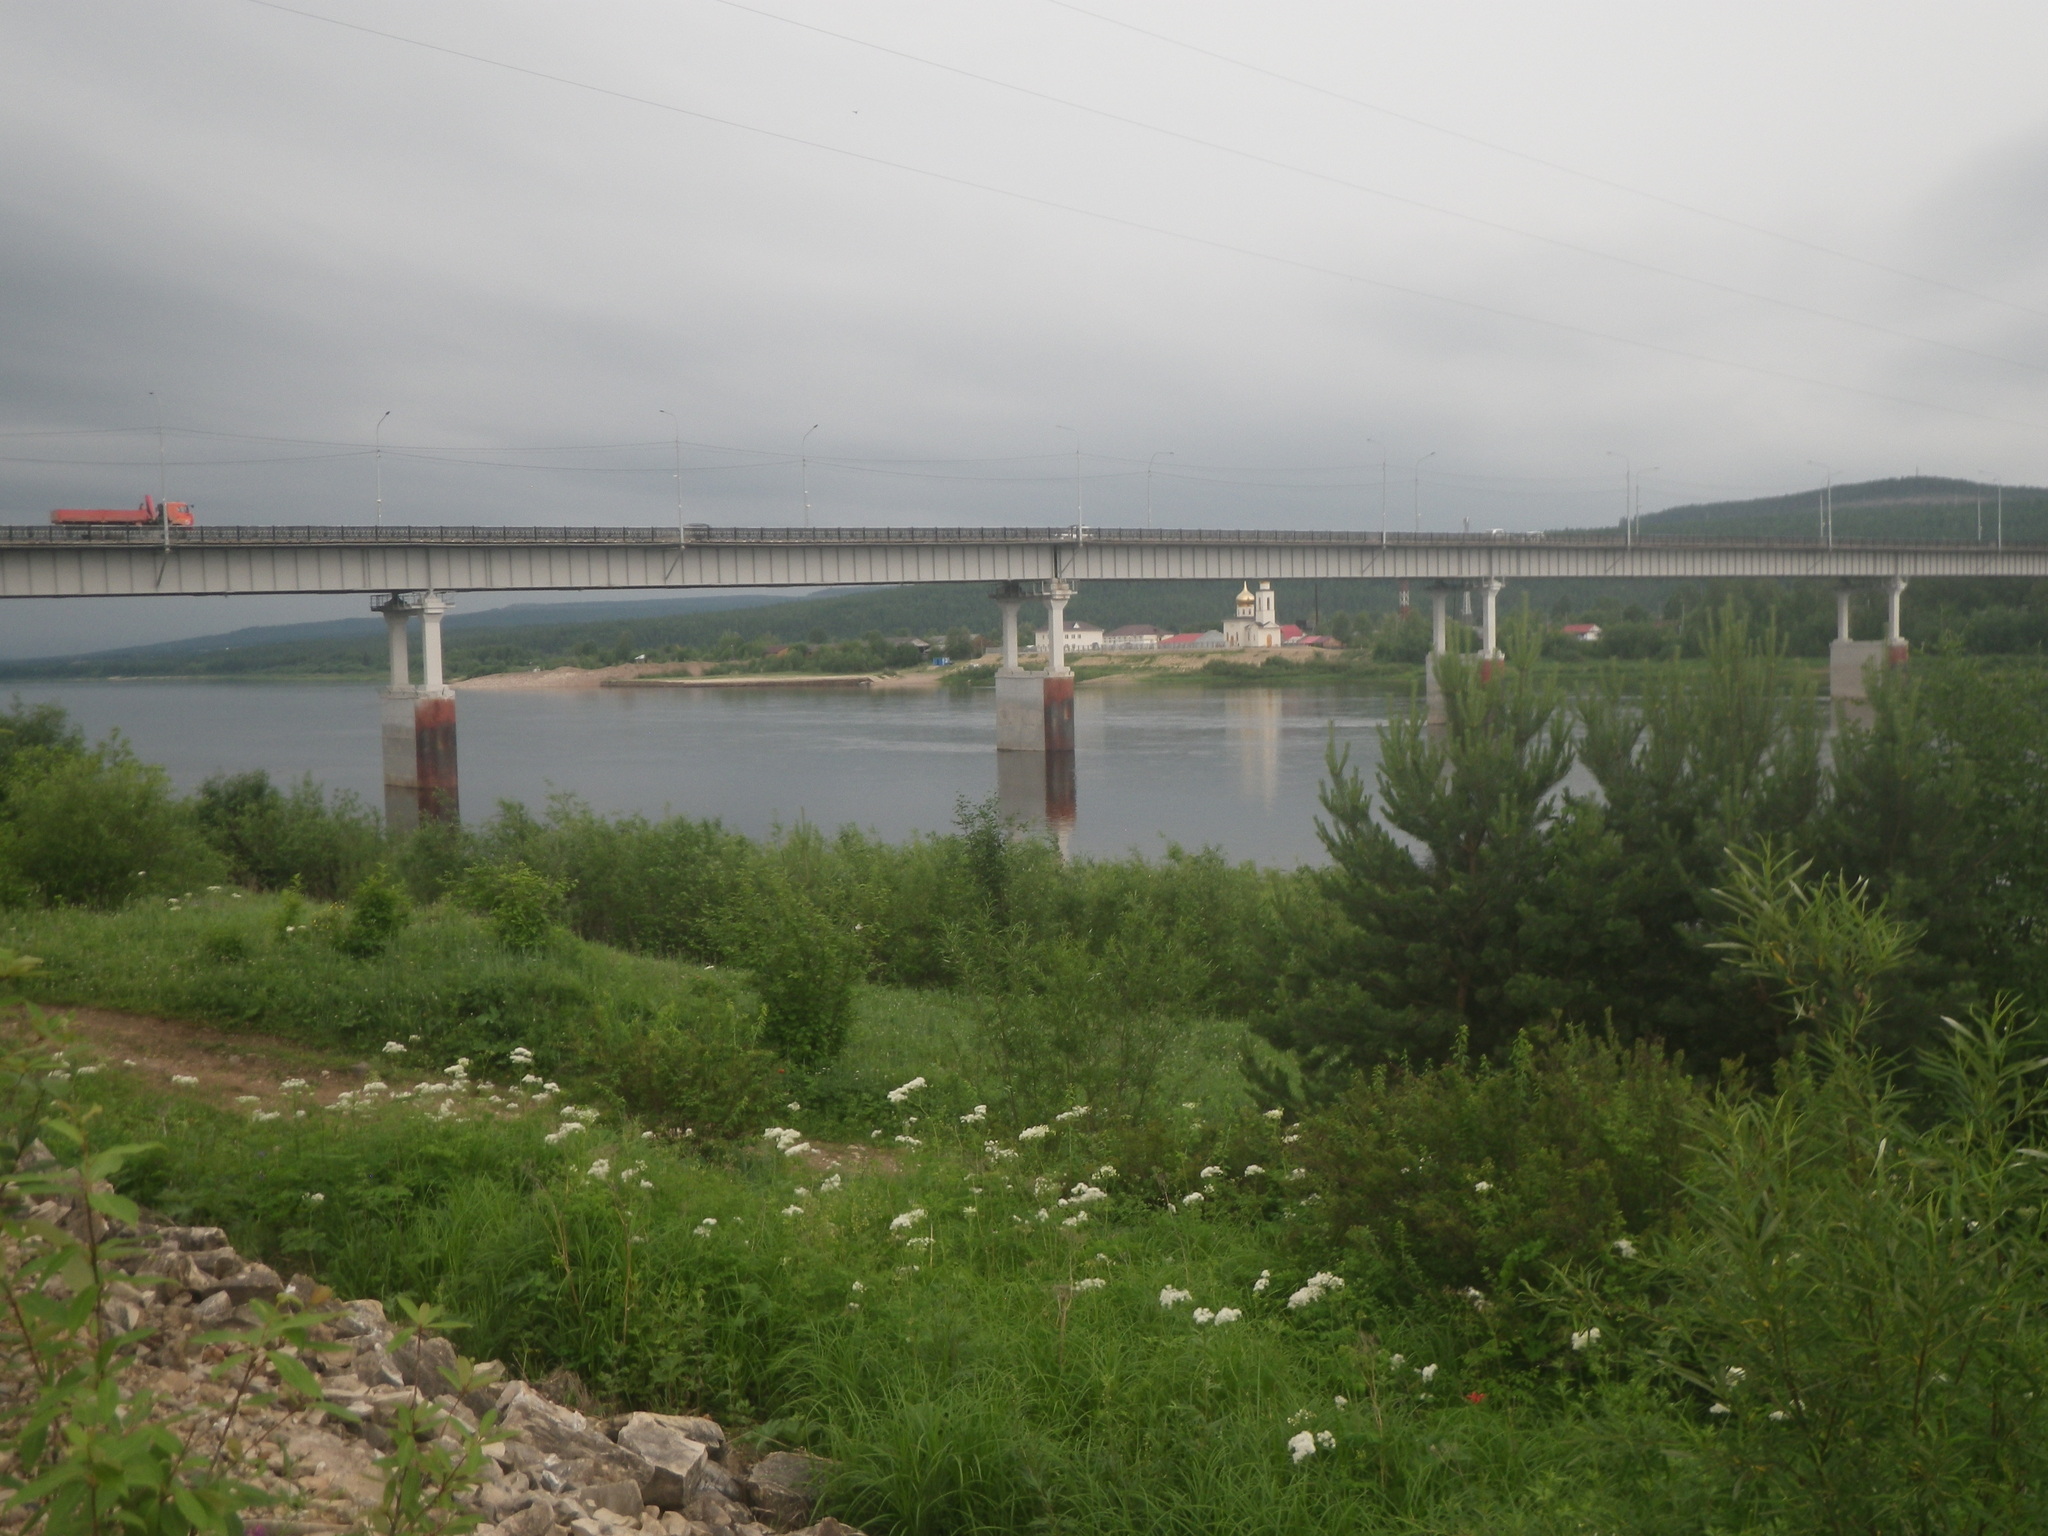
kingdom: Plantae
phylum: Tracheophyta
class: Pinopsida
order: Pinales
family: Pinaceae
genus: Pinus
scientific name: Pinus sylvestris
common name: Scots pine
